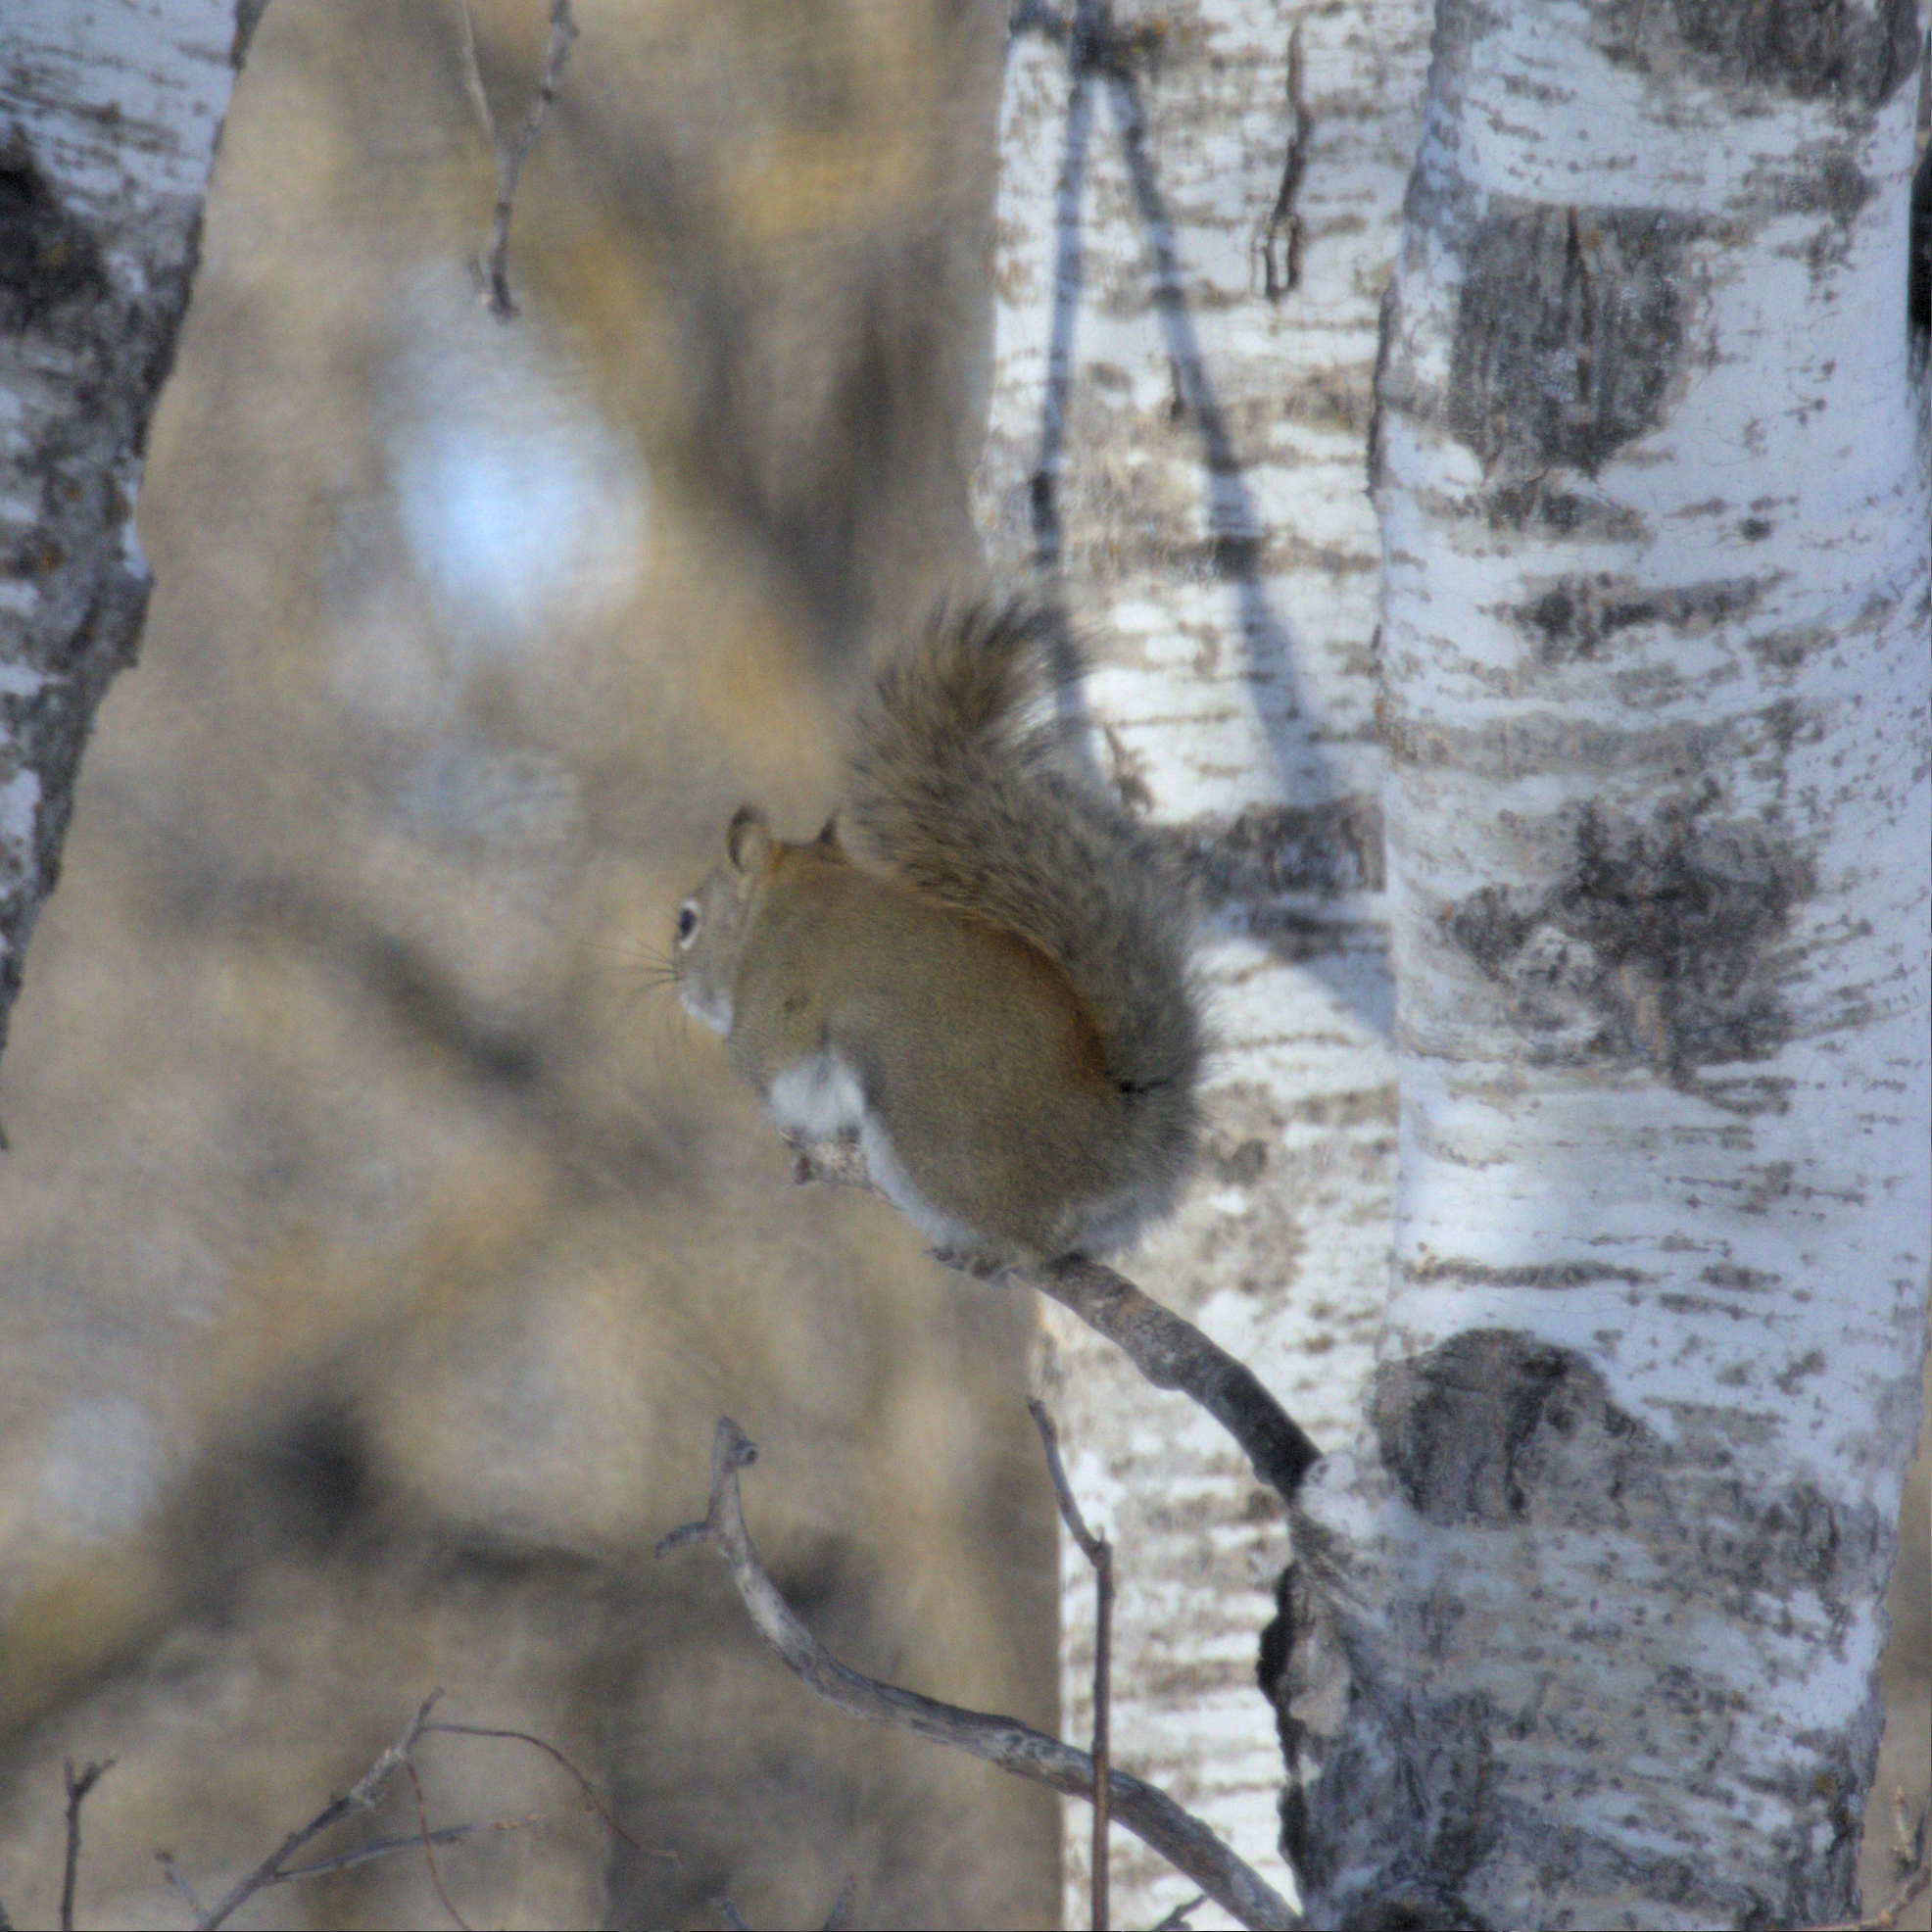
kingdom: Animalia
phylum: Chordata
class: Mammalia
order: Rodentia
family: Sciuridae
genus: Tamiasciurus
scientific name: Tamiasciurus hudsonicus
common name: Red squirrel
